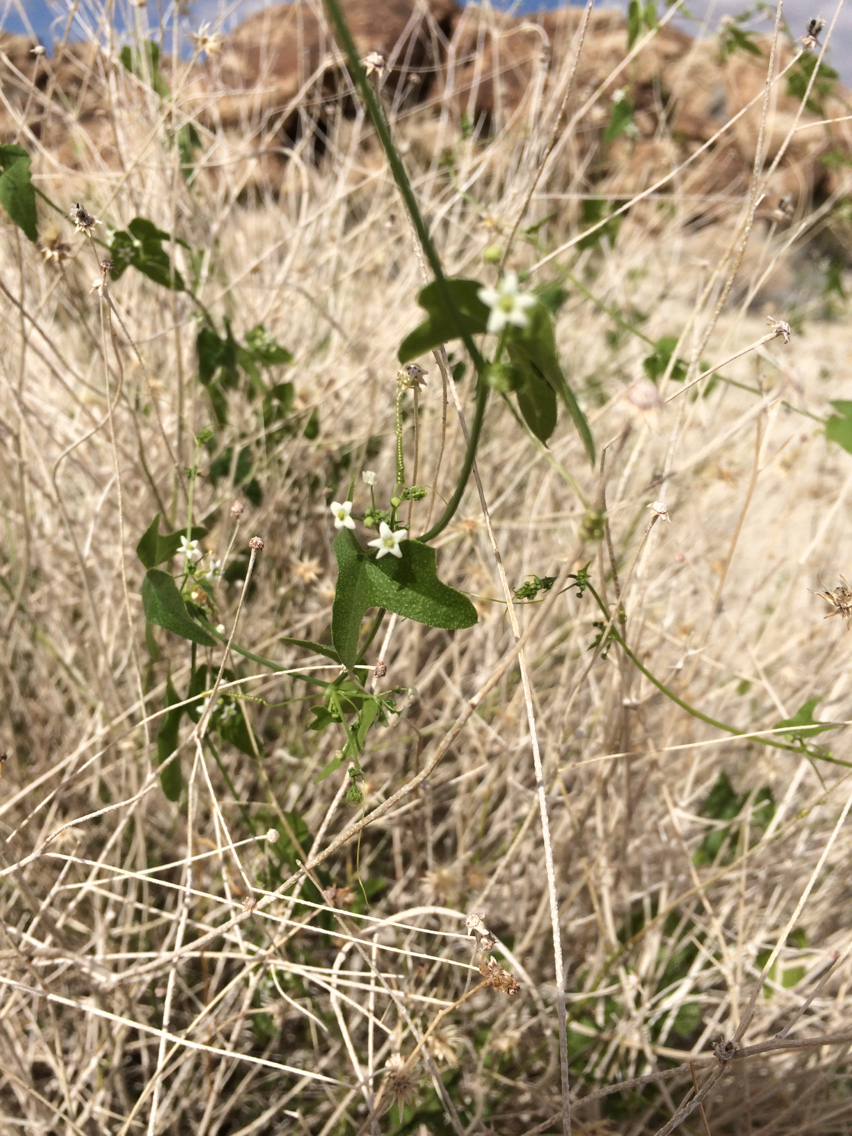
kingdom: Plantae
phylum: Tracheophyta
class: Magnoliopsida
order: Cucurbitales
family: Cucurbitaceae
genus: Echinopepon
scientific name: Echinopepon bigelovii
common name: Desert starvine
